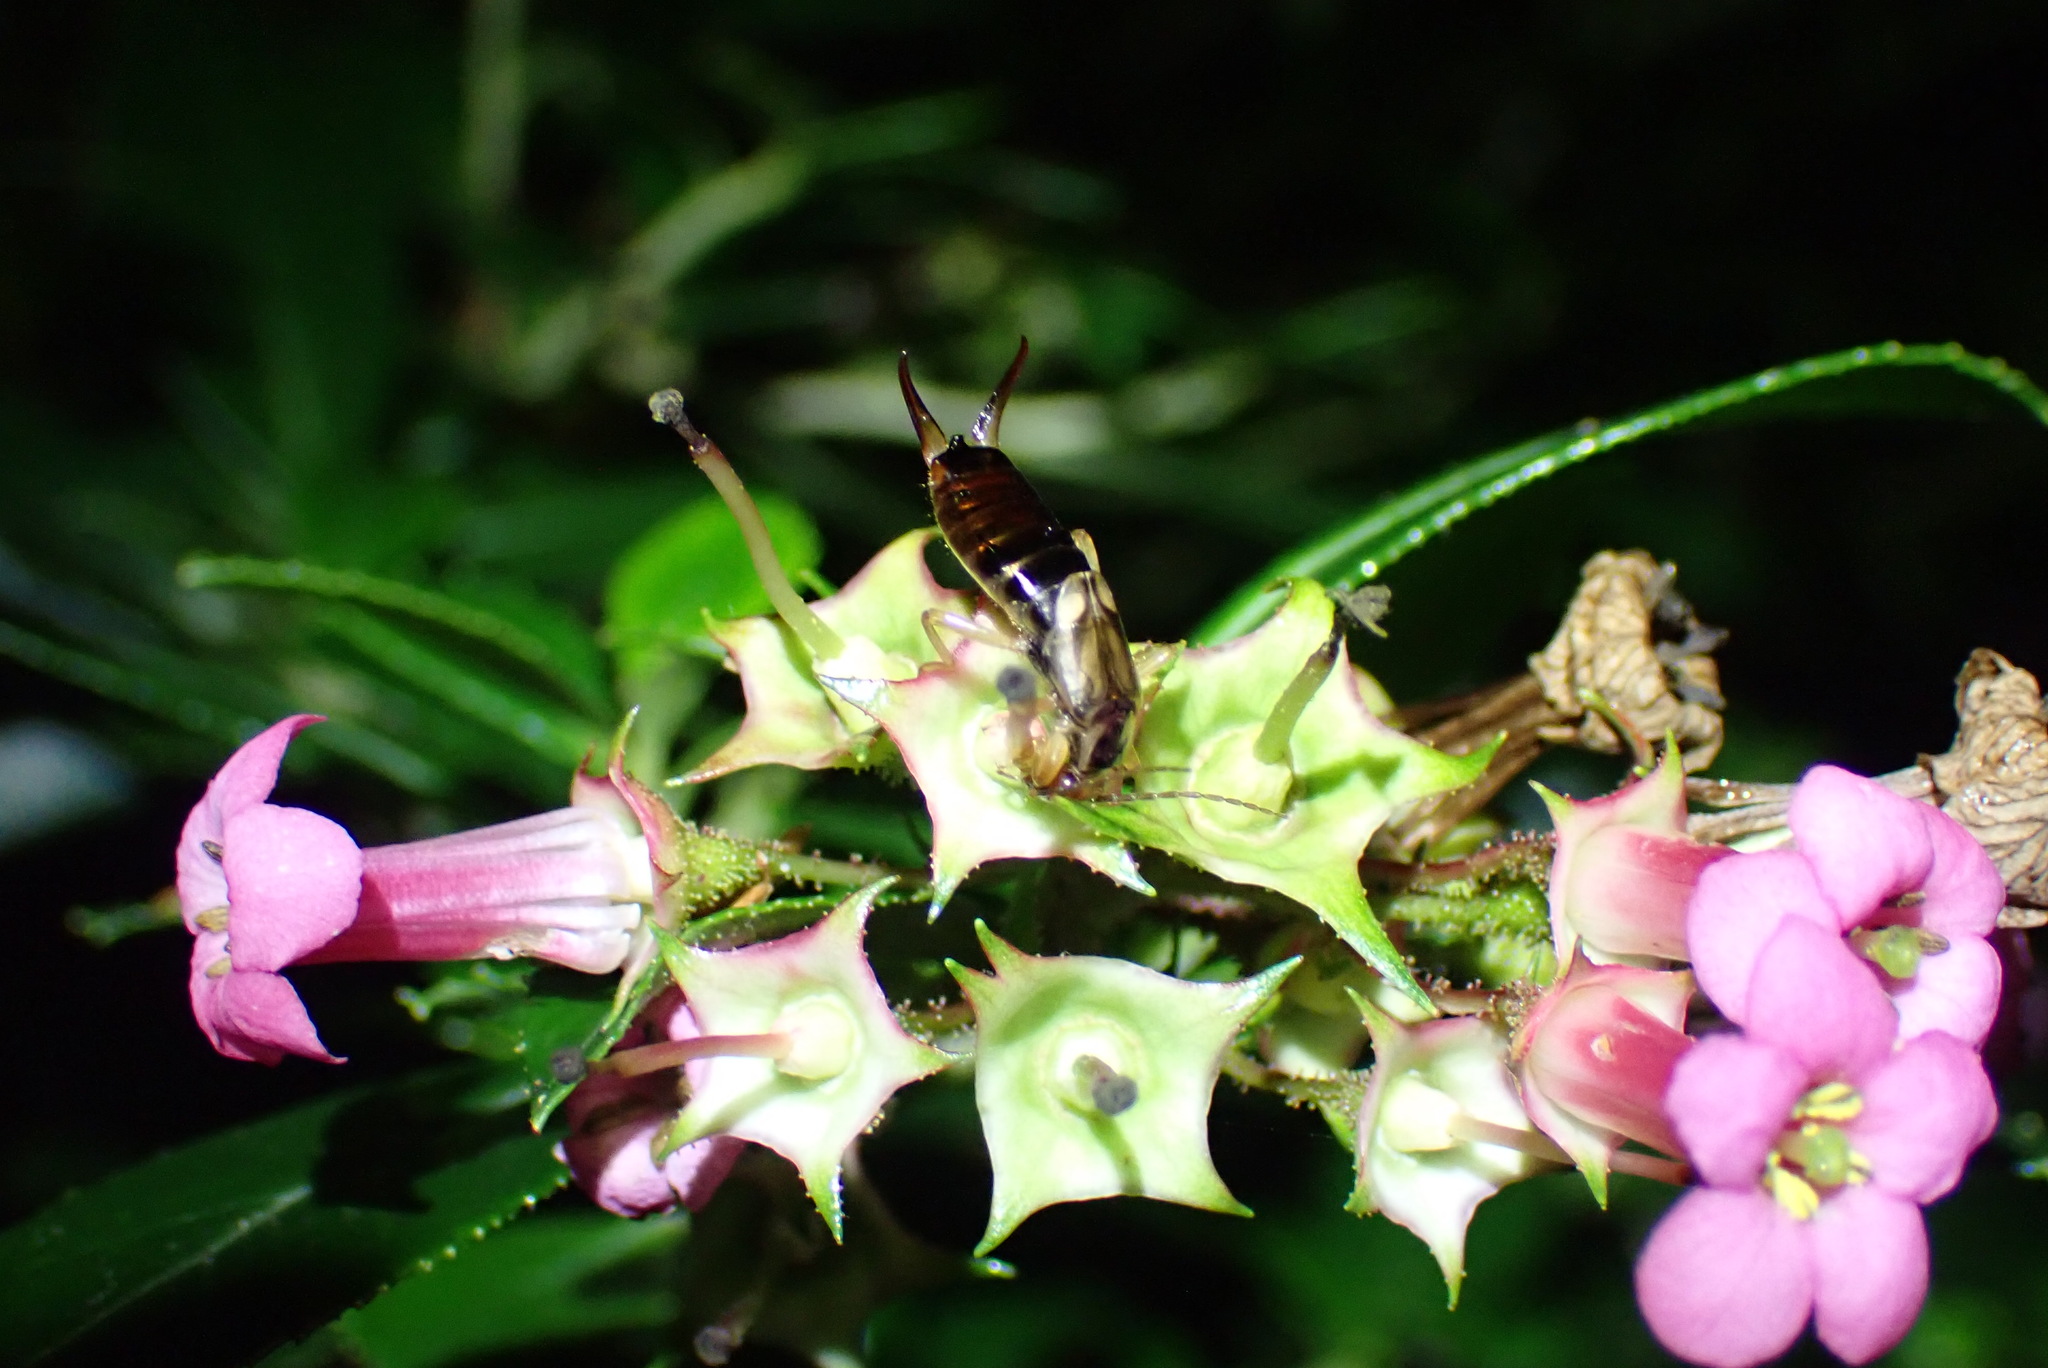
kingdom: Animalia
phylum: Arthropoda
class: Insecta
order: Dermaptera
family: Forficulidae
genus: Forficula
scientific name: Forficula
